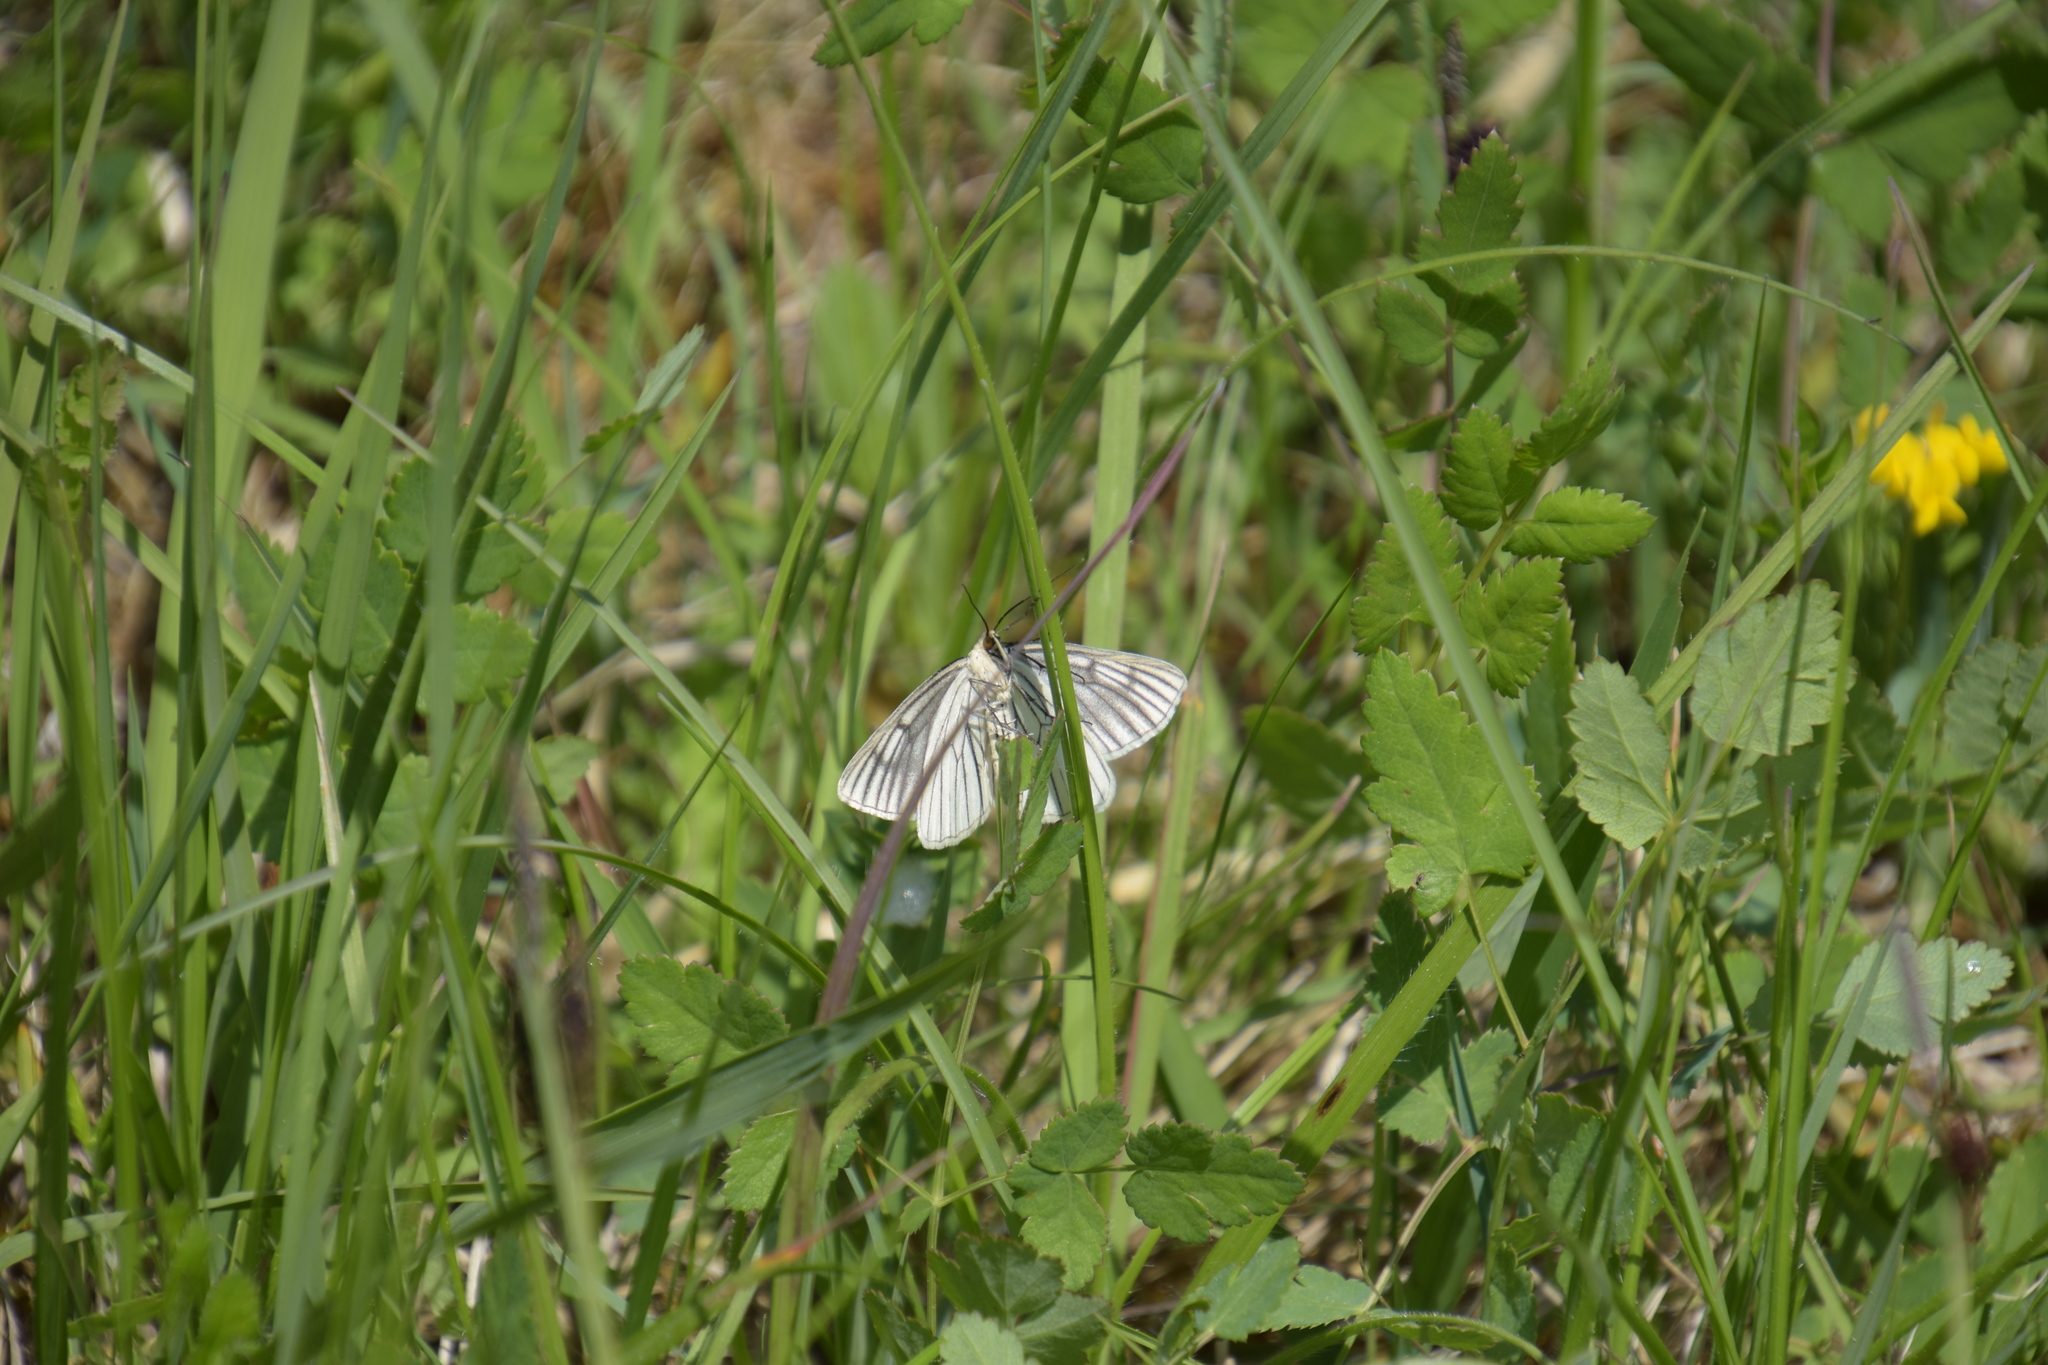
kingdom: Animalia
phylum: Arthropoda
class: Insecta
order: Lepidoptera
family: Geometridae
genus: Siona
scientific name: Siona lineata
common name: Black-veined moth
